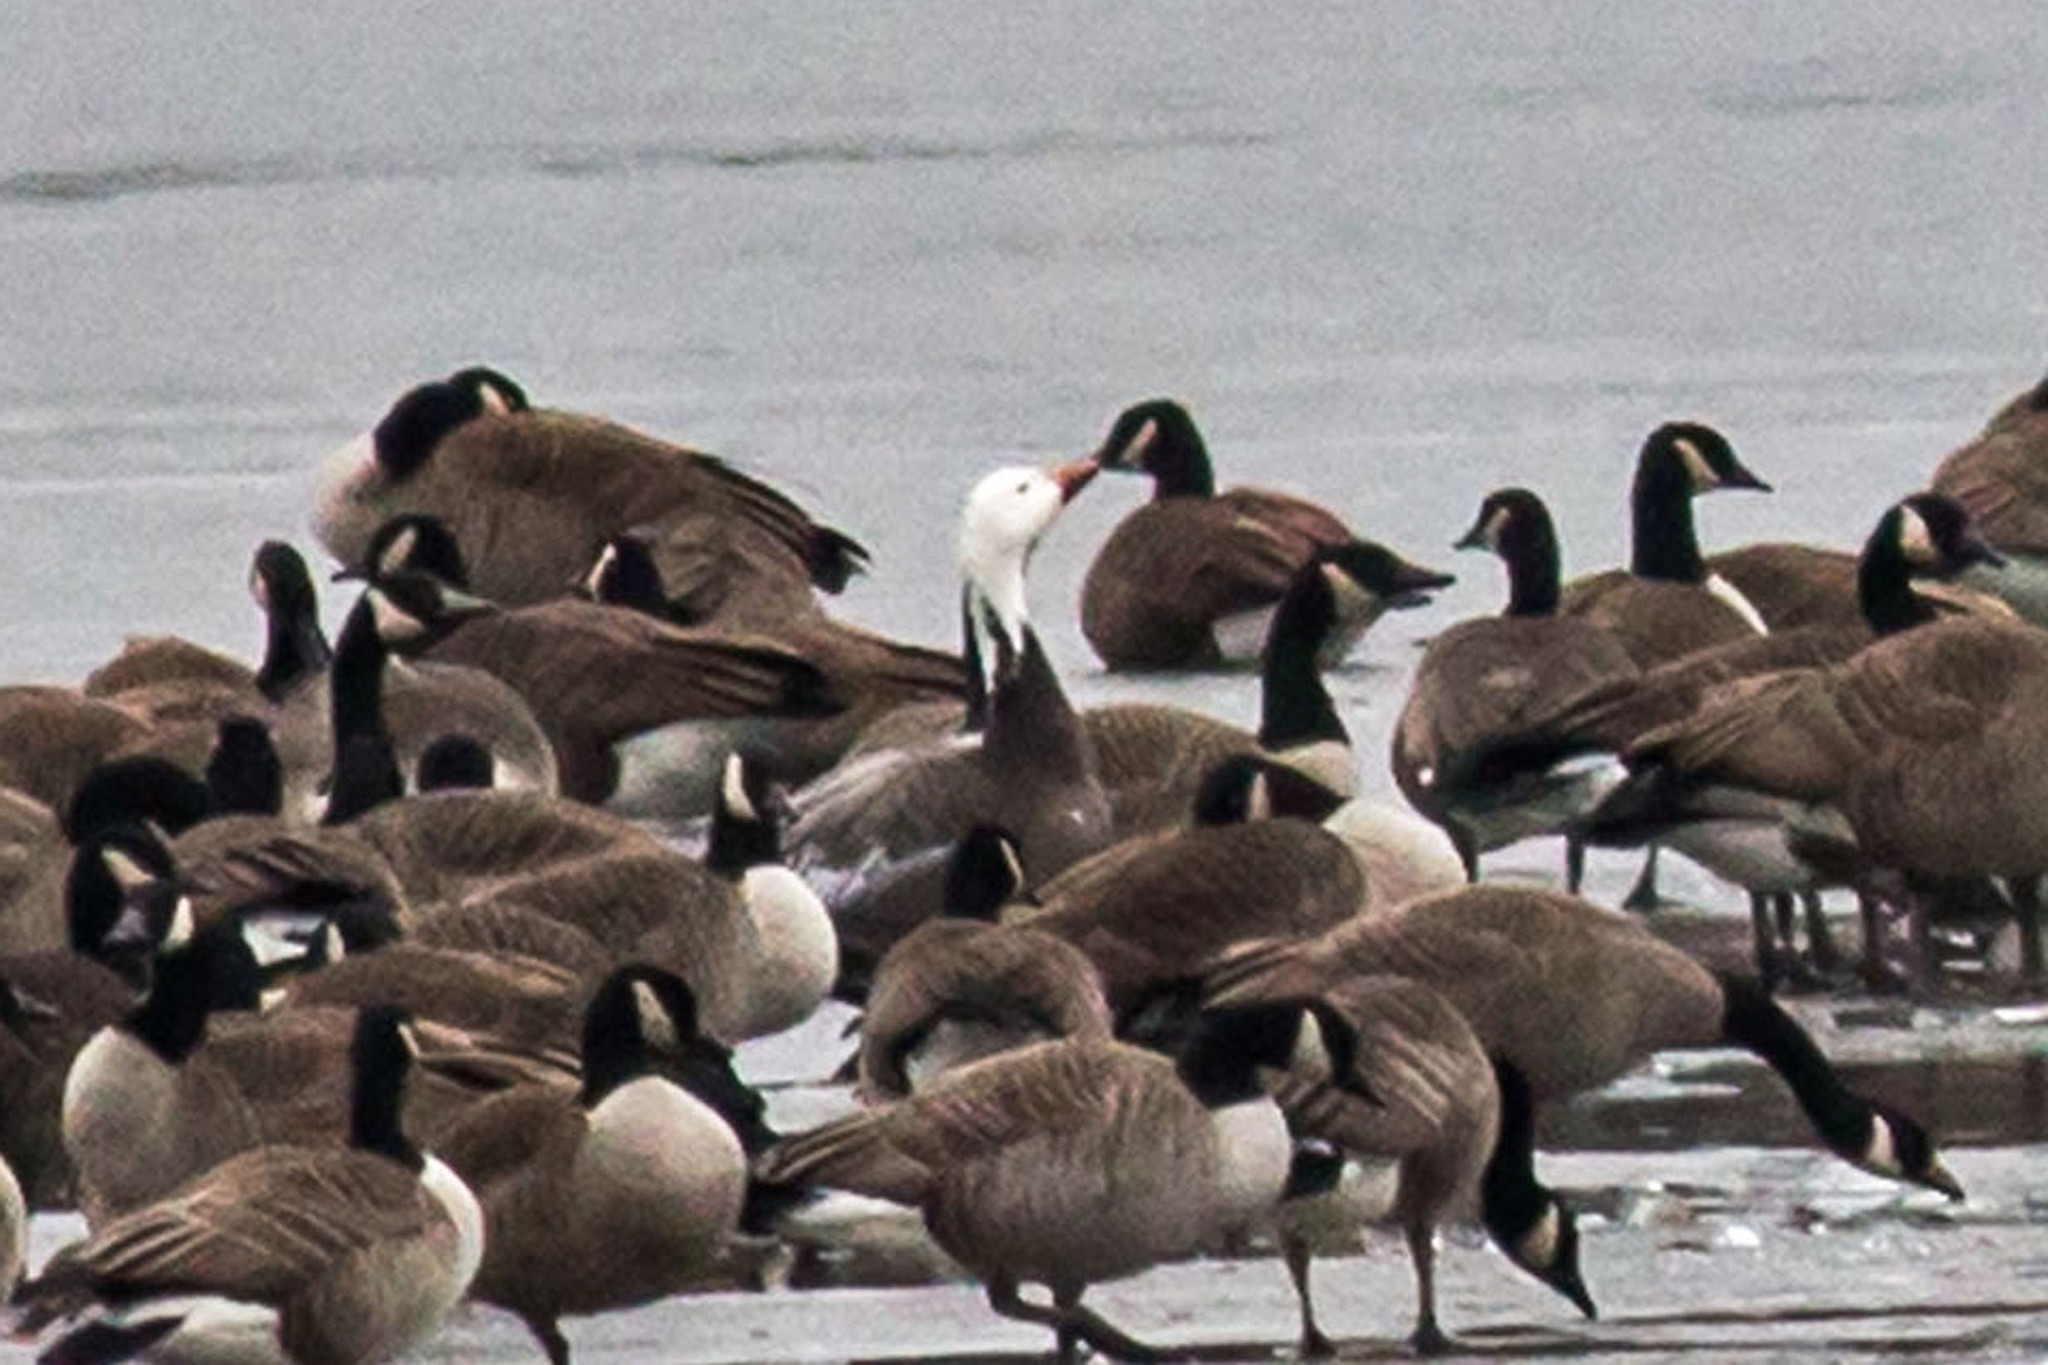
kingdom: Animalia
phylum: Chordata
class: Aves
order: Anseriformes
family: Anatidae
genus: Anser
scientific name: Anser caerulescens
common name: Snow goose
